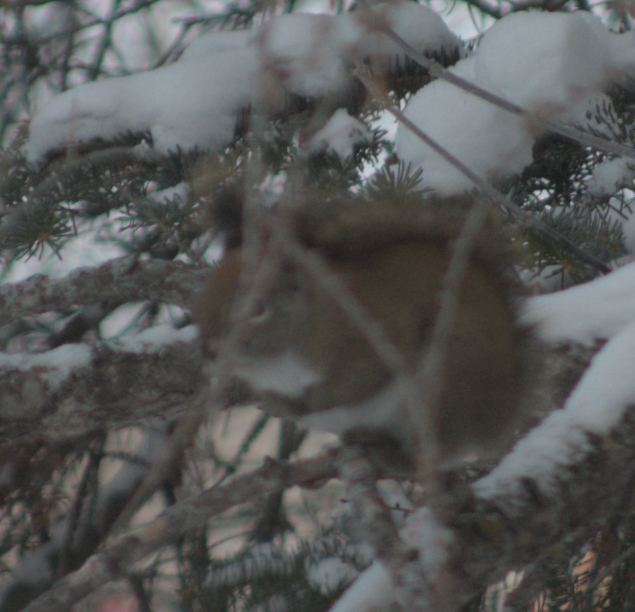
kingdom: Animalia
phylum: Chordata
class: Mammalia
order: Rodentia
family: Sciuridae
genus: Tamiasciurus
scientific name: Tamiasciurus hudsonicus
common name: Red squirrel
